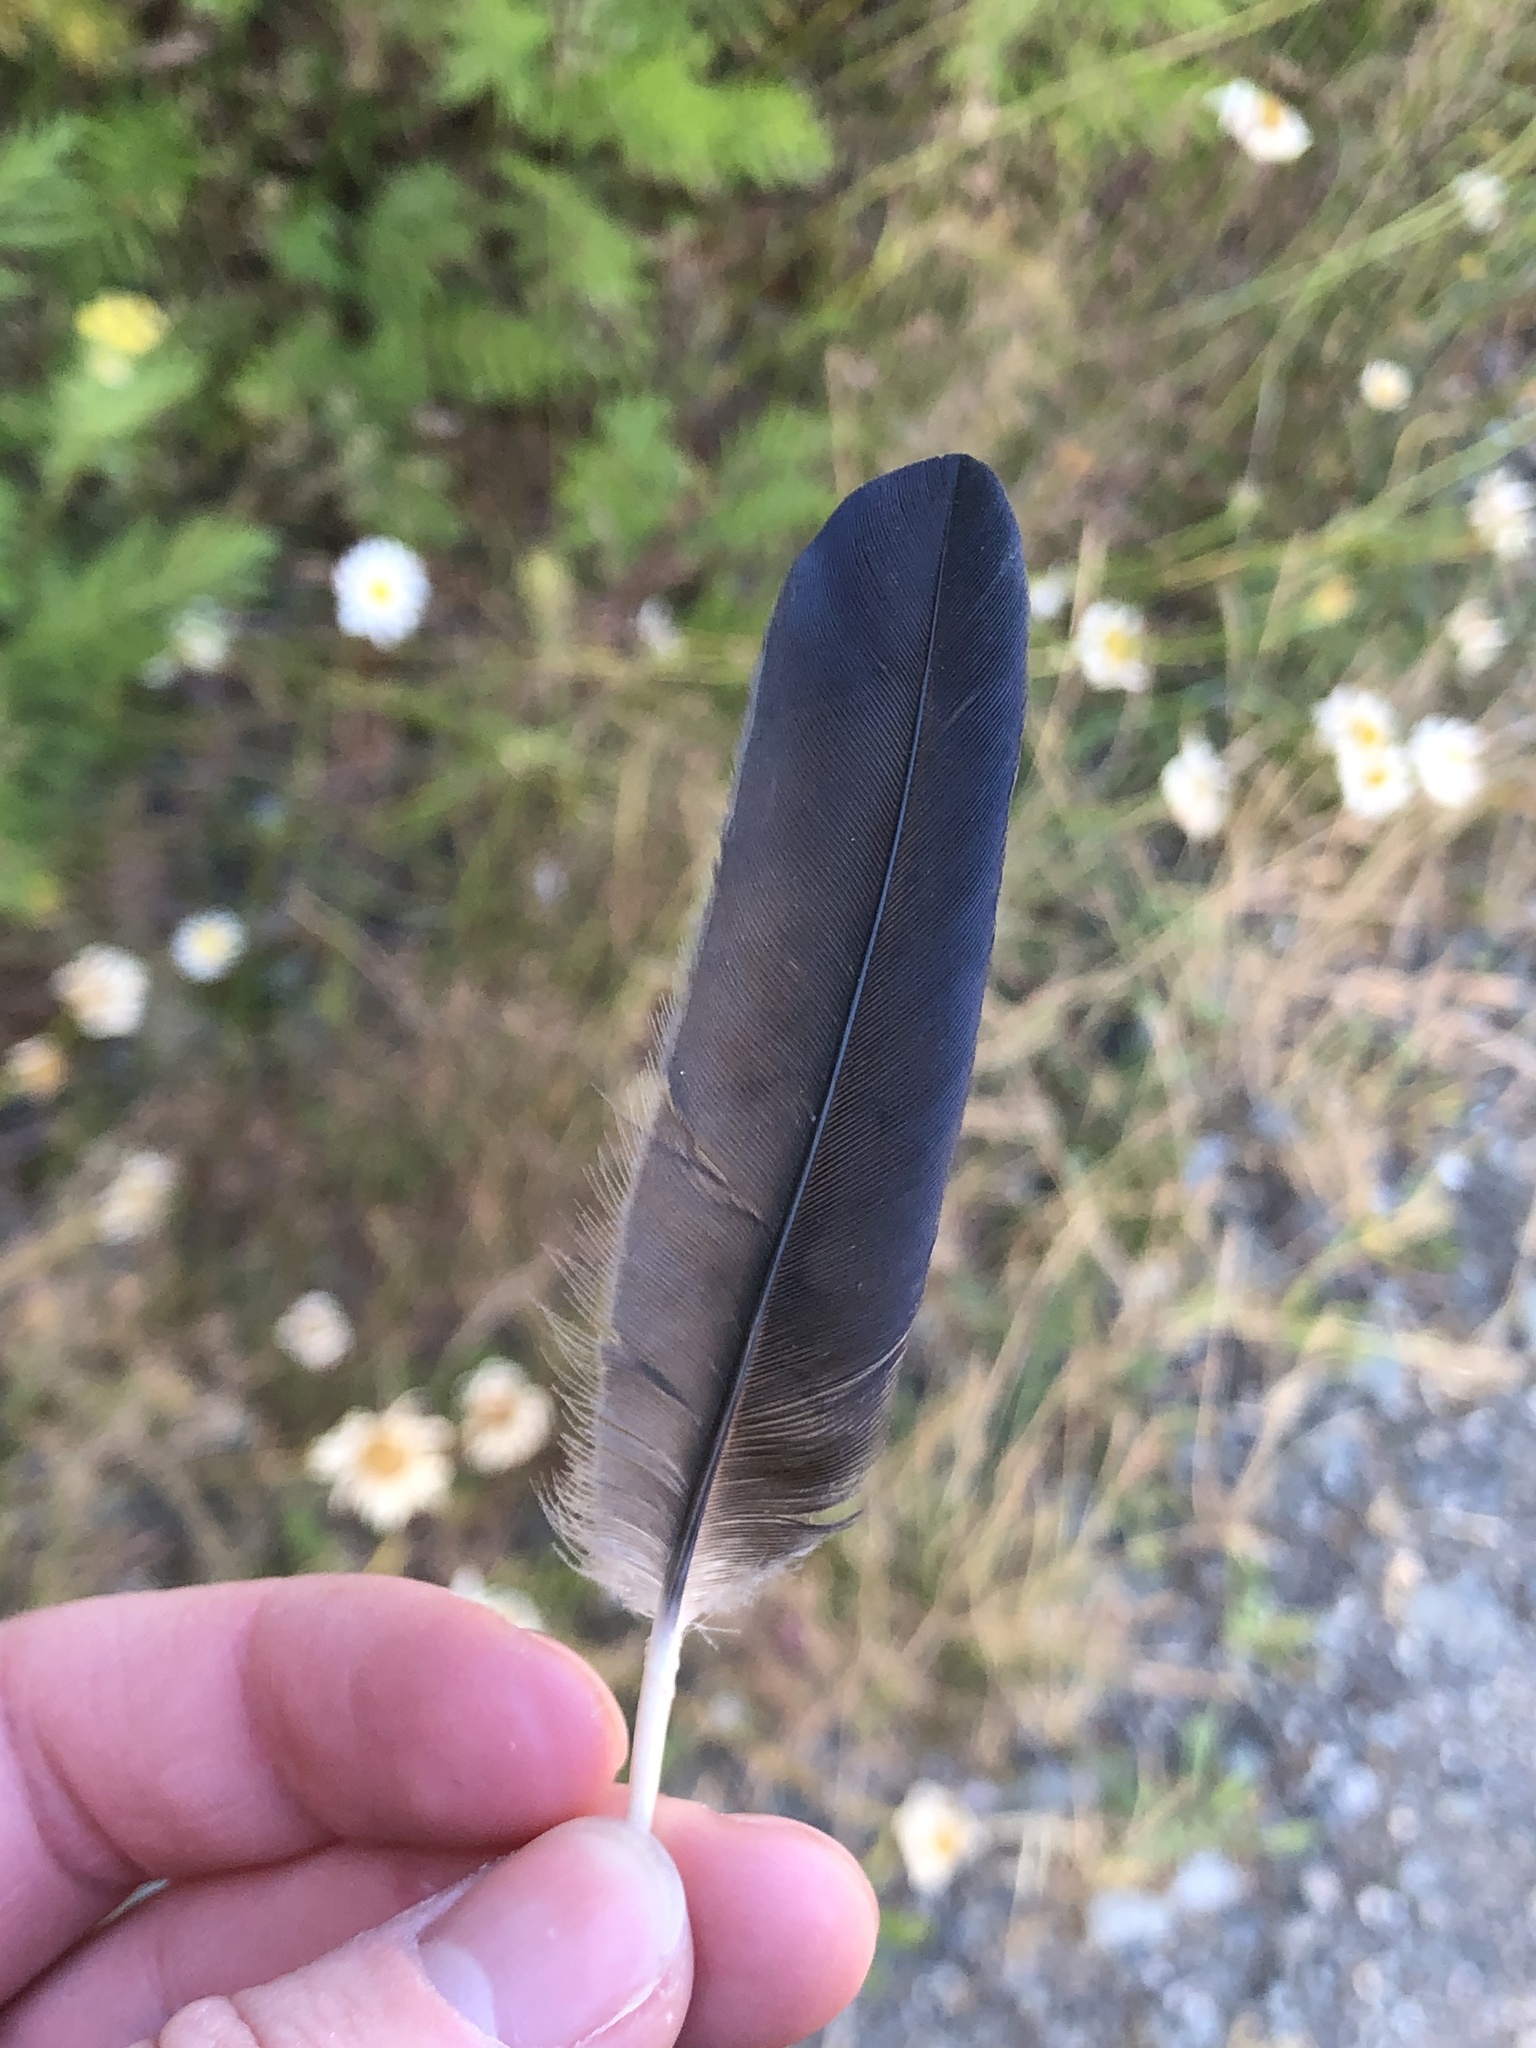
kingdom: Animalia
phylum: Chordata
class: Aves
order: Passeriformes
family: Corvidae
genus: Corvus
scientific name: Corvus brachyrhynchos
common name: American crow
